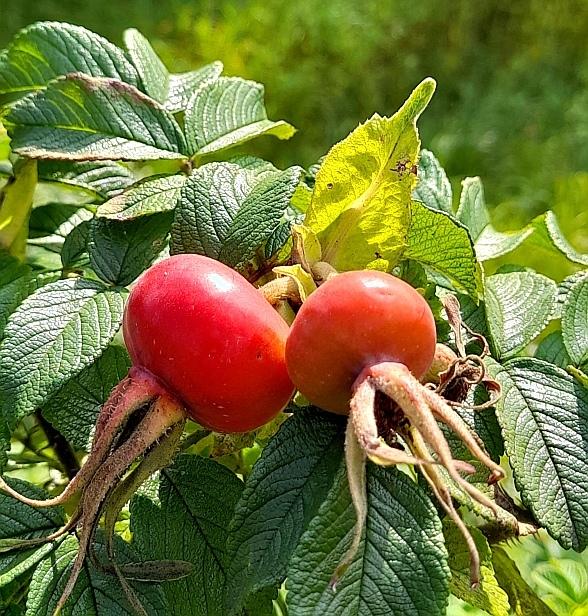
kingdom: Plantae
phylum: Tracheophyta
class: Magnoliopsida
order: Rosales
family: Rosaceae
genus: Rosa
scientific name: Rosa rugosa
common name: Japanese rose
